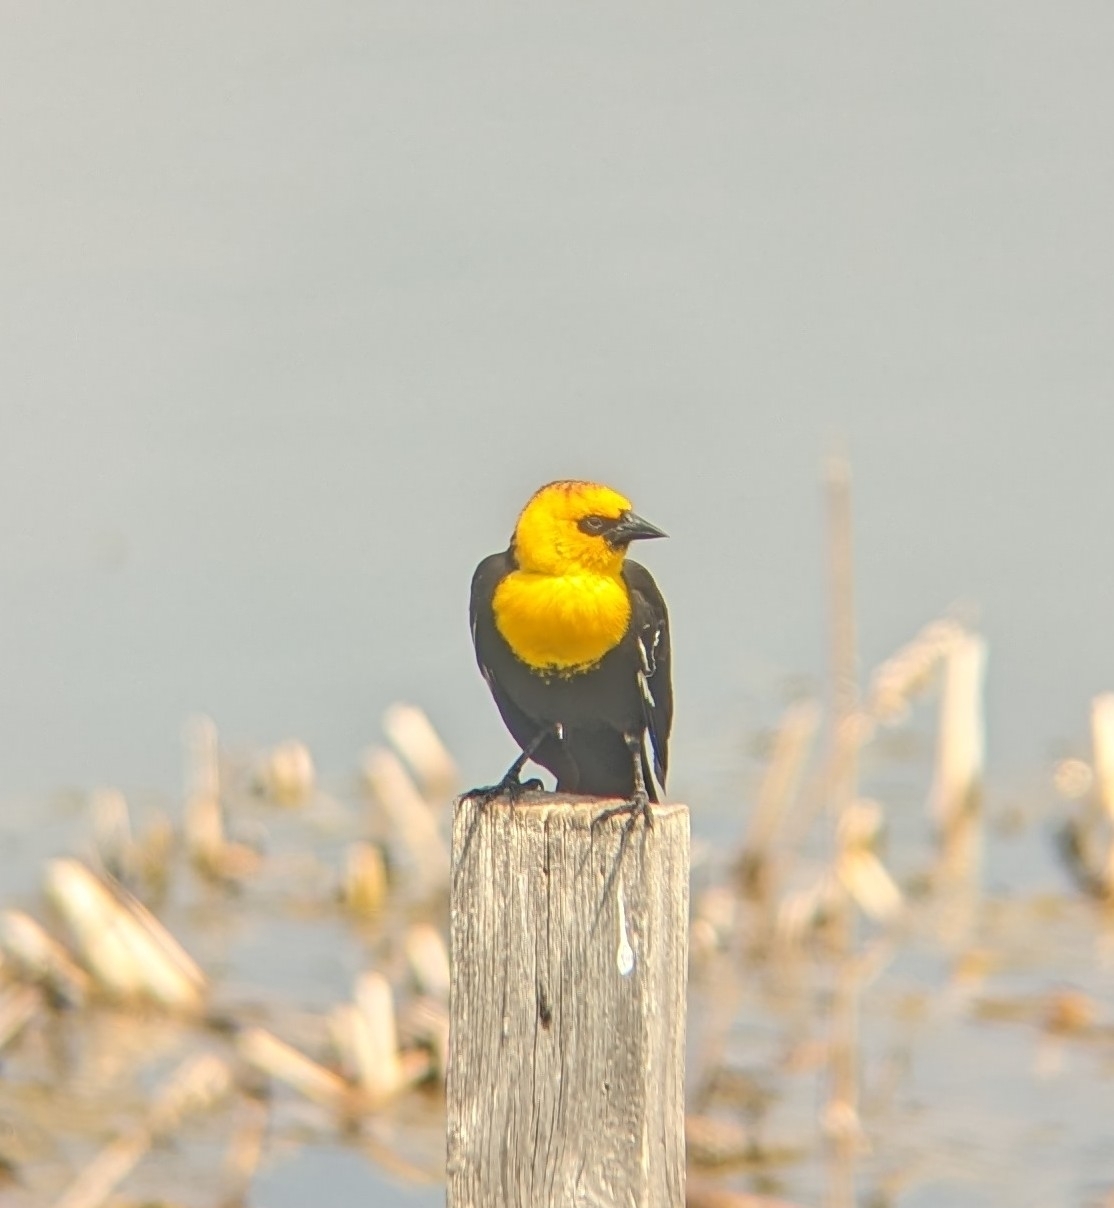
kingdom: Animalia
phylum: Chordata
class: Aves
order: Passeriformes
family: Icteridae
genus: Xanthocephalus
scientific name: Xanthocephalus xanthocephalus
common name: Yellow-headed blackbird
